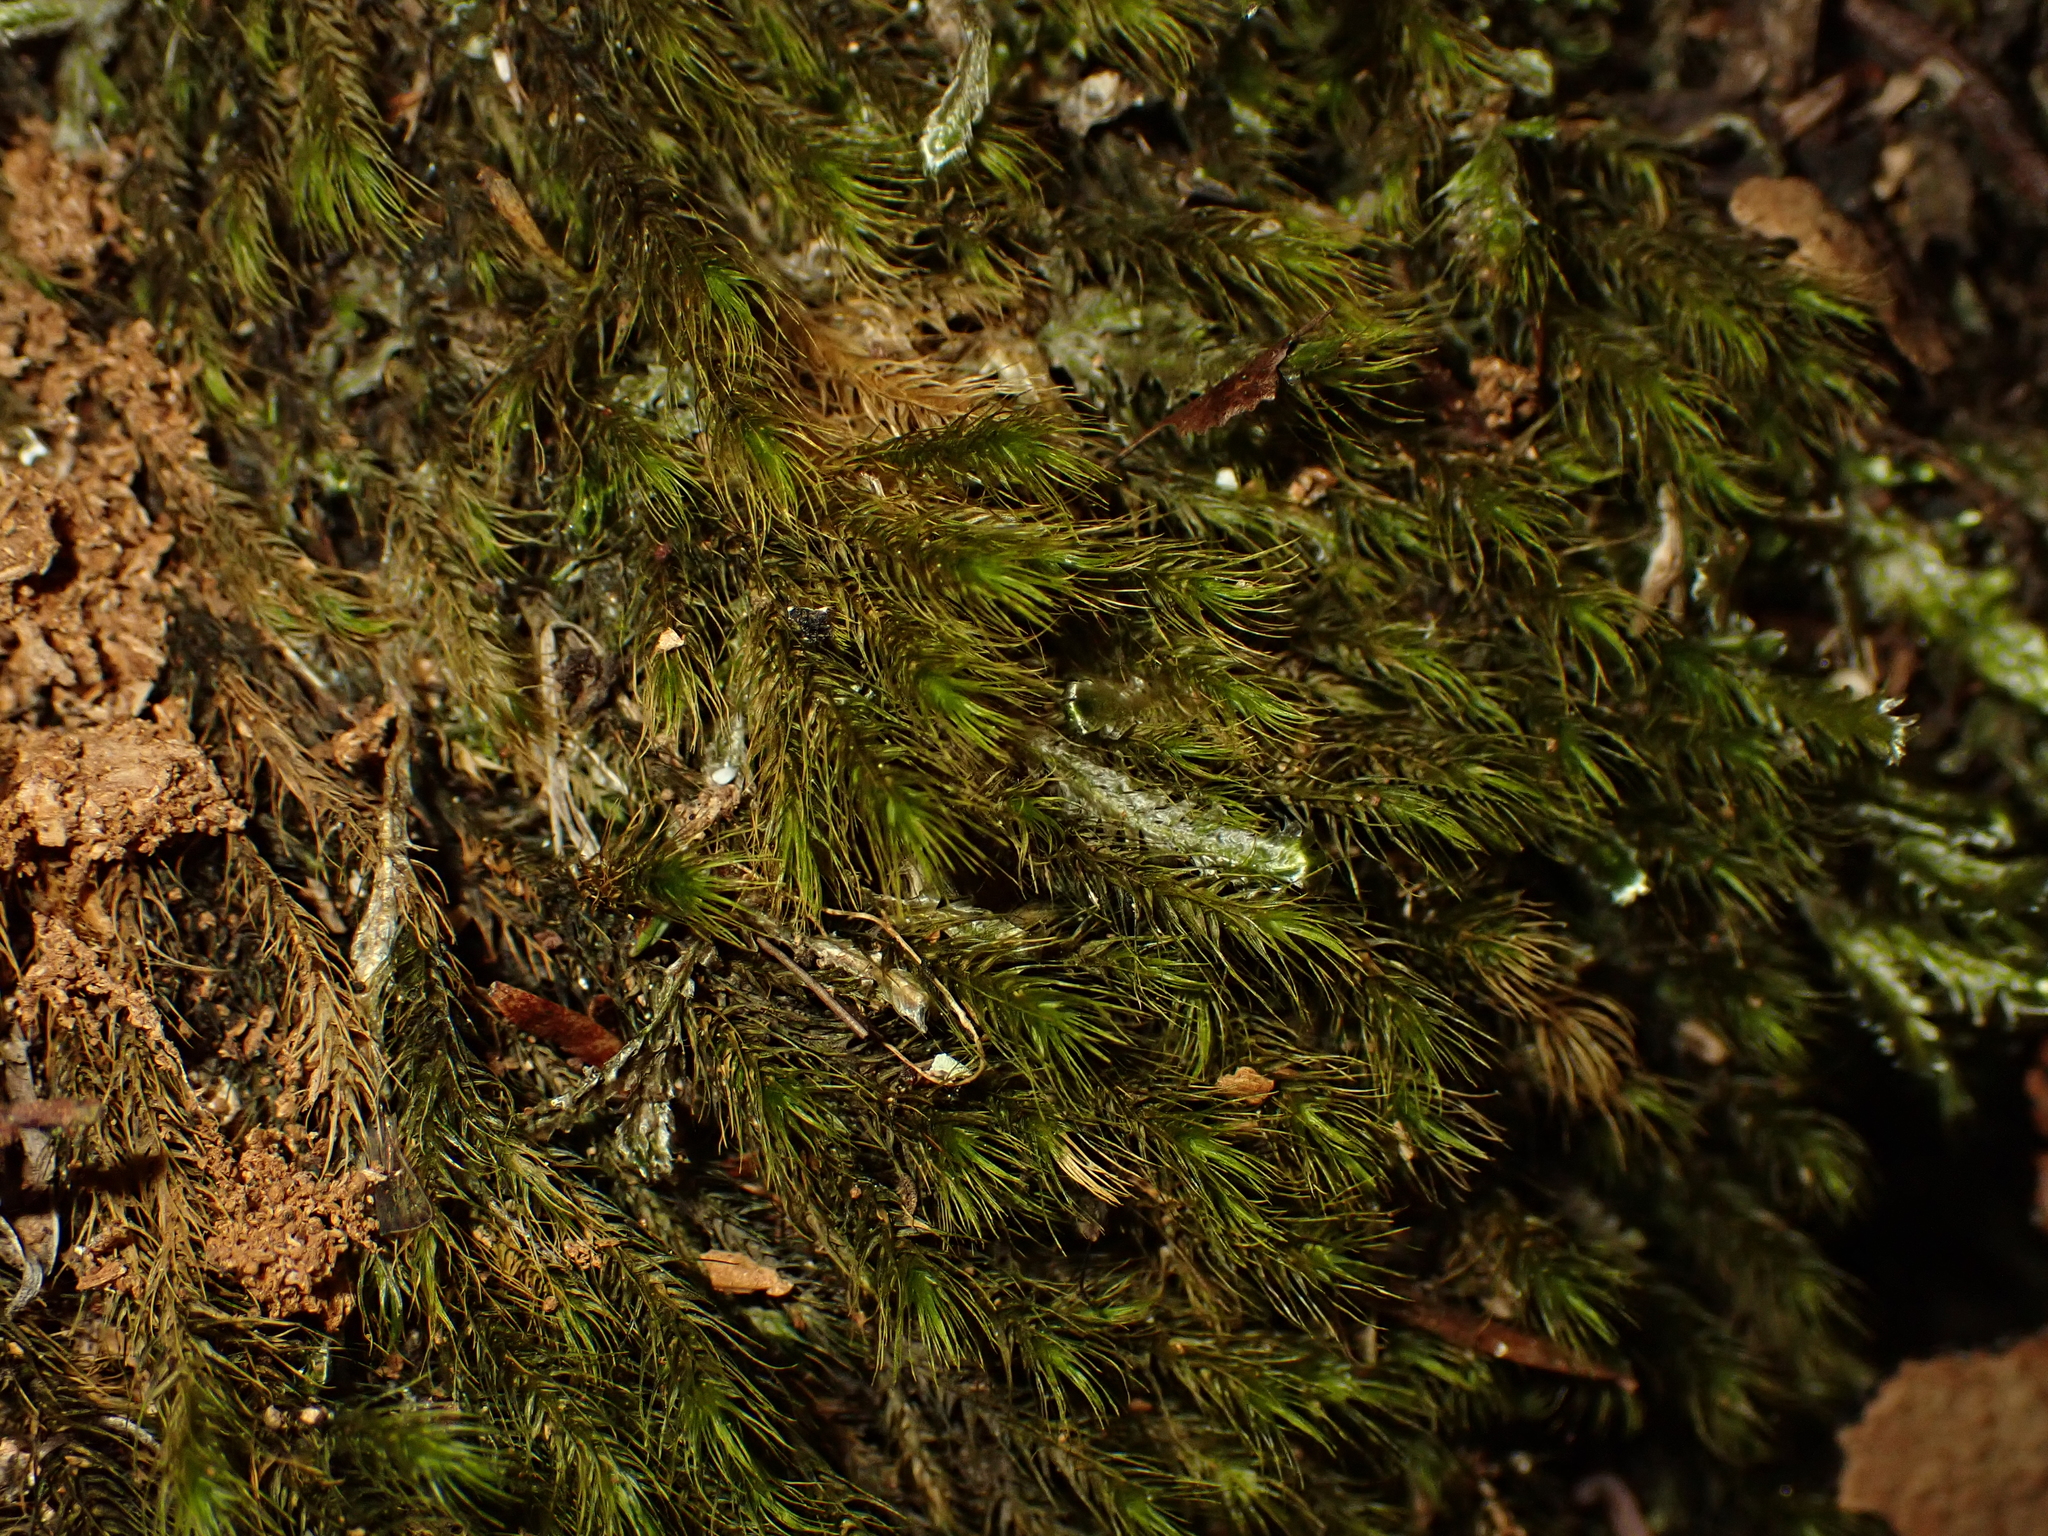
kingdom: Plantae
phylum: Bryophyta
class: Bryopsida
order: Hypnales
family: Neckeraceae
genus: Echinodiopsis
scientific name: Echinodiopsis hispida
